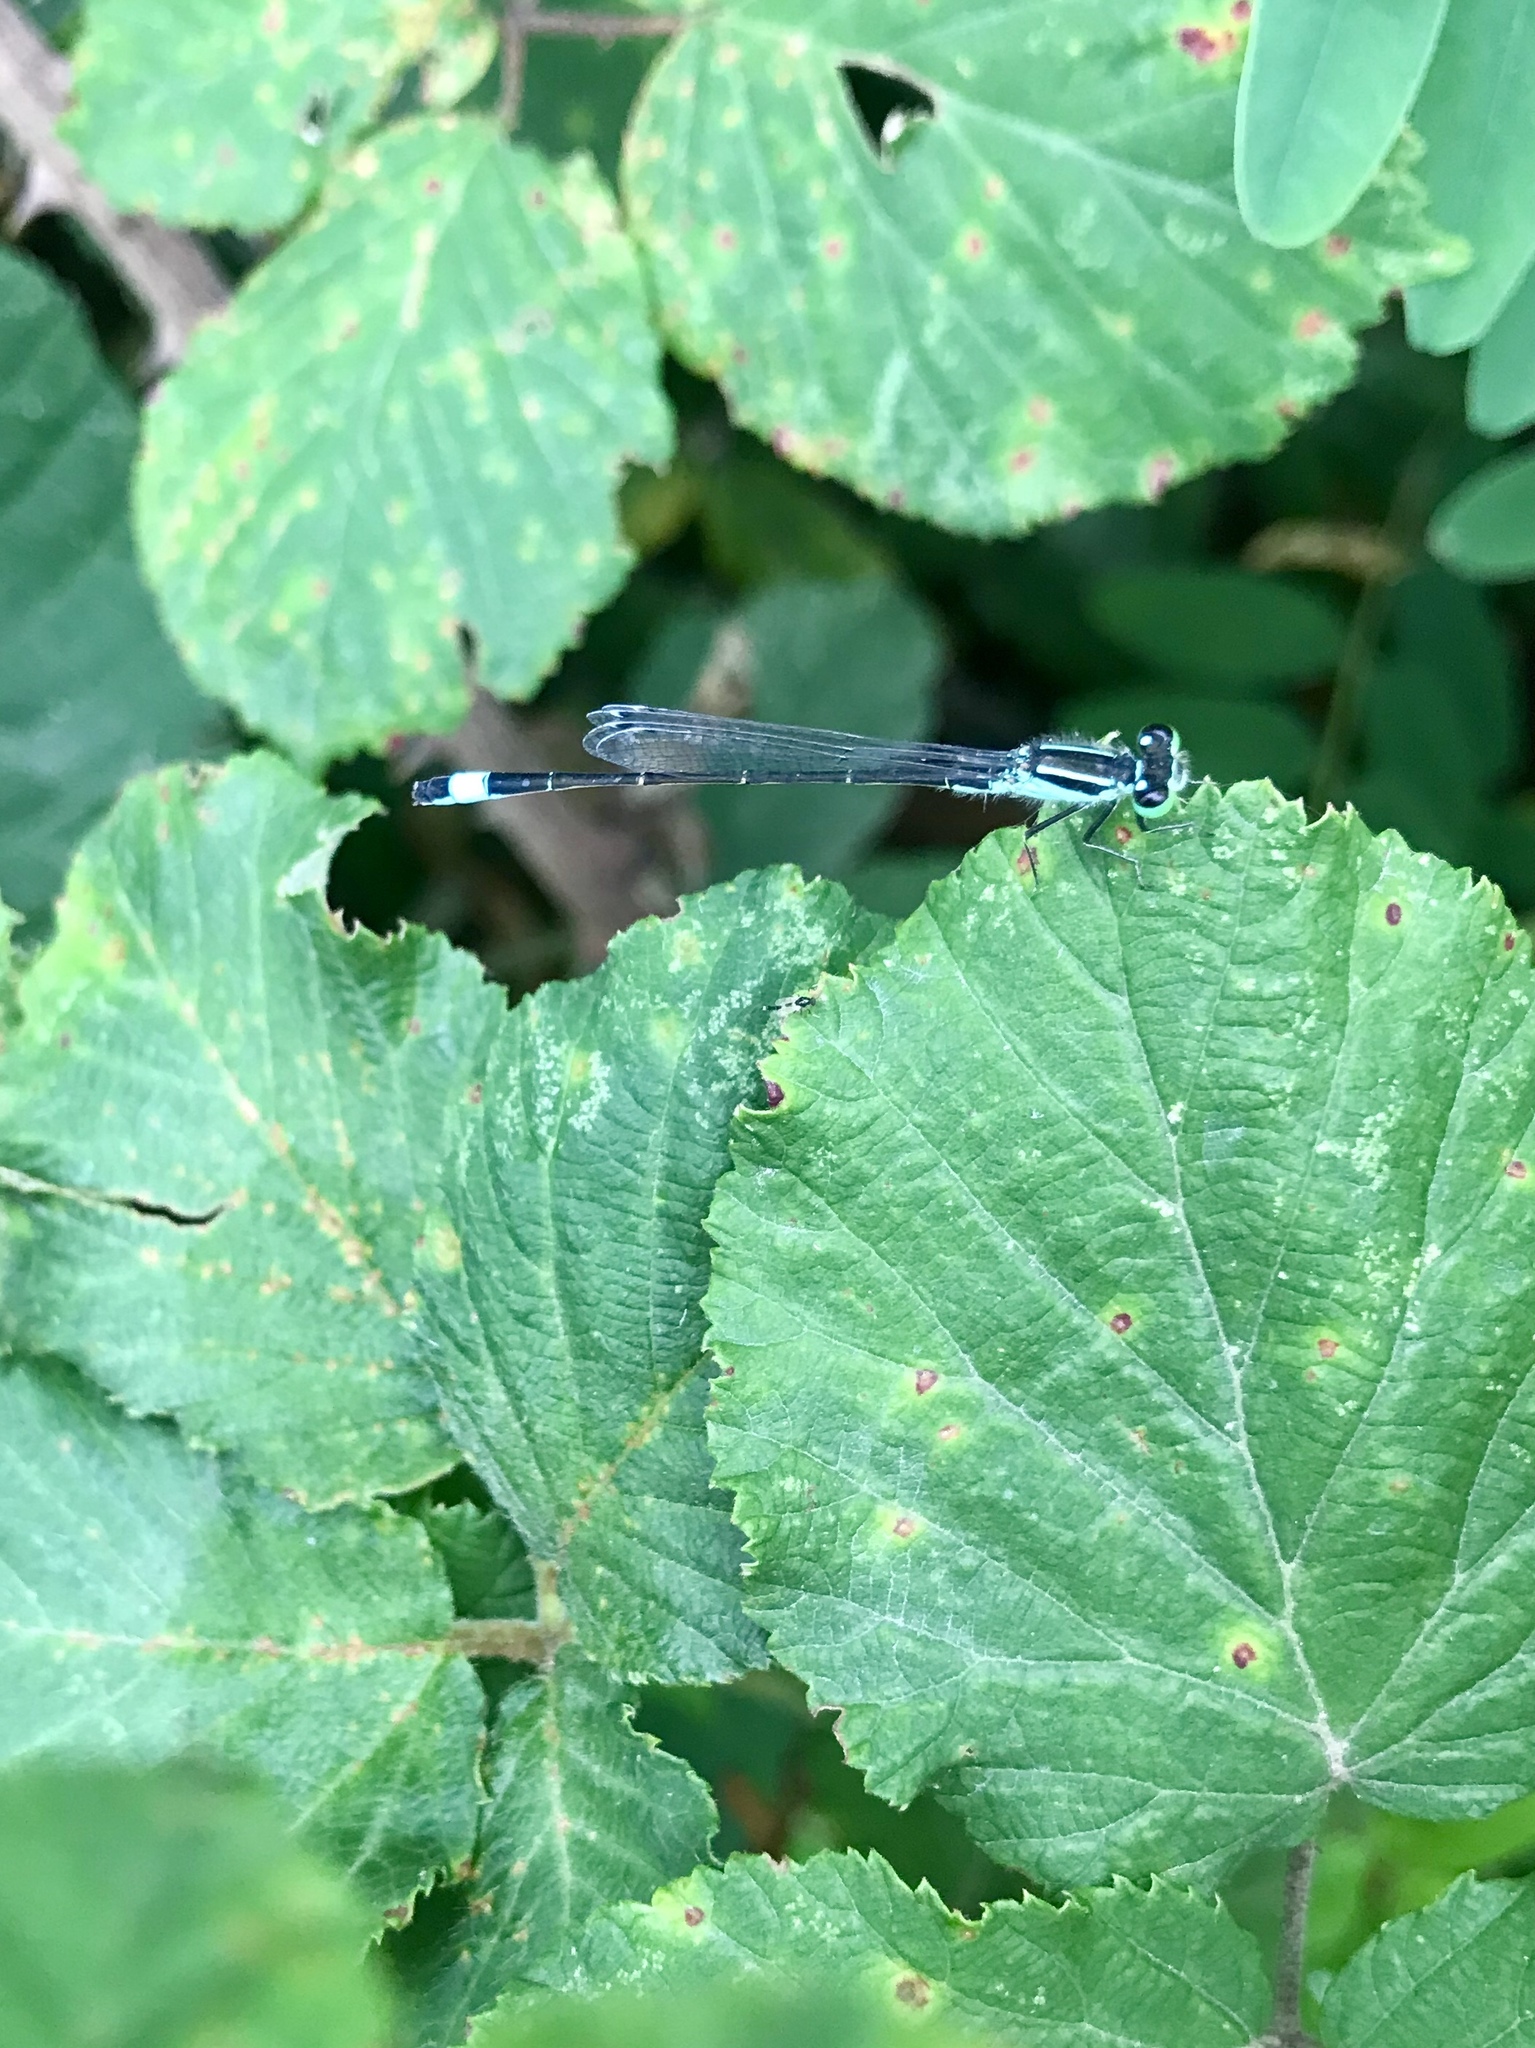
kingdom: Animalia
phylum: Arthropoda
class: Insecta
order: Odonata
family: Coenagrionidae
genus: Ischnura
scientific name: Ischnura elegans
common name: Blue-tailed damselfly
